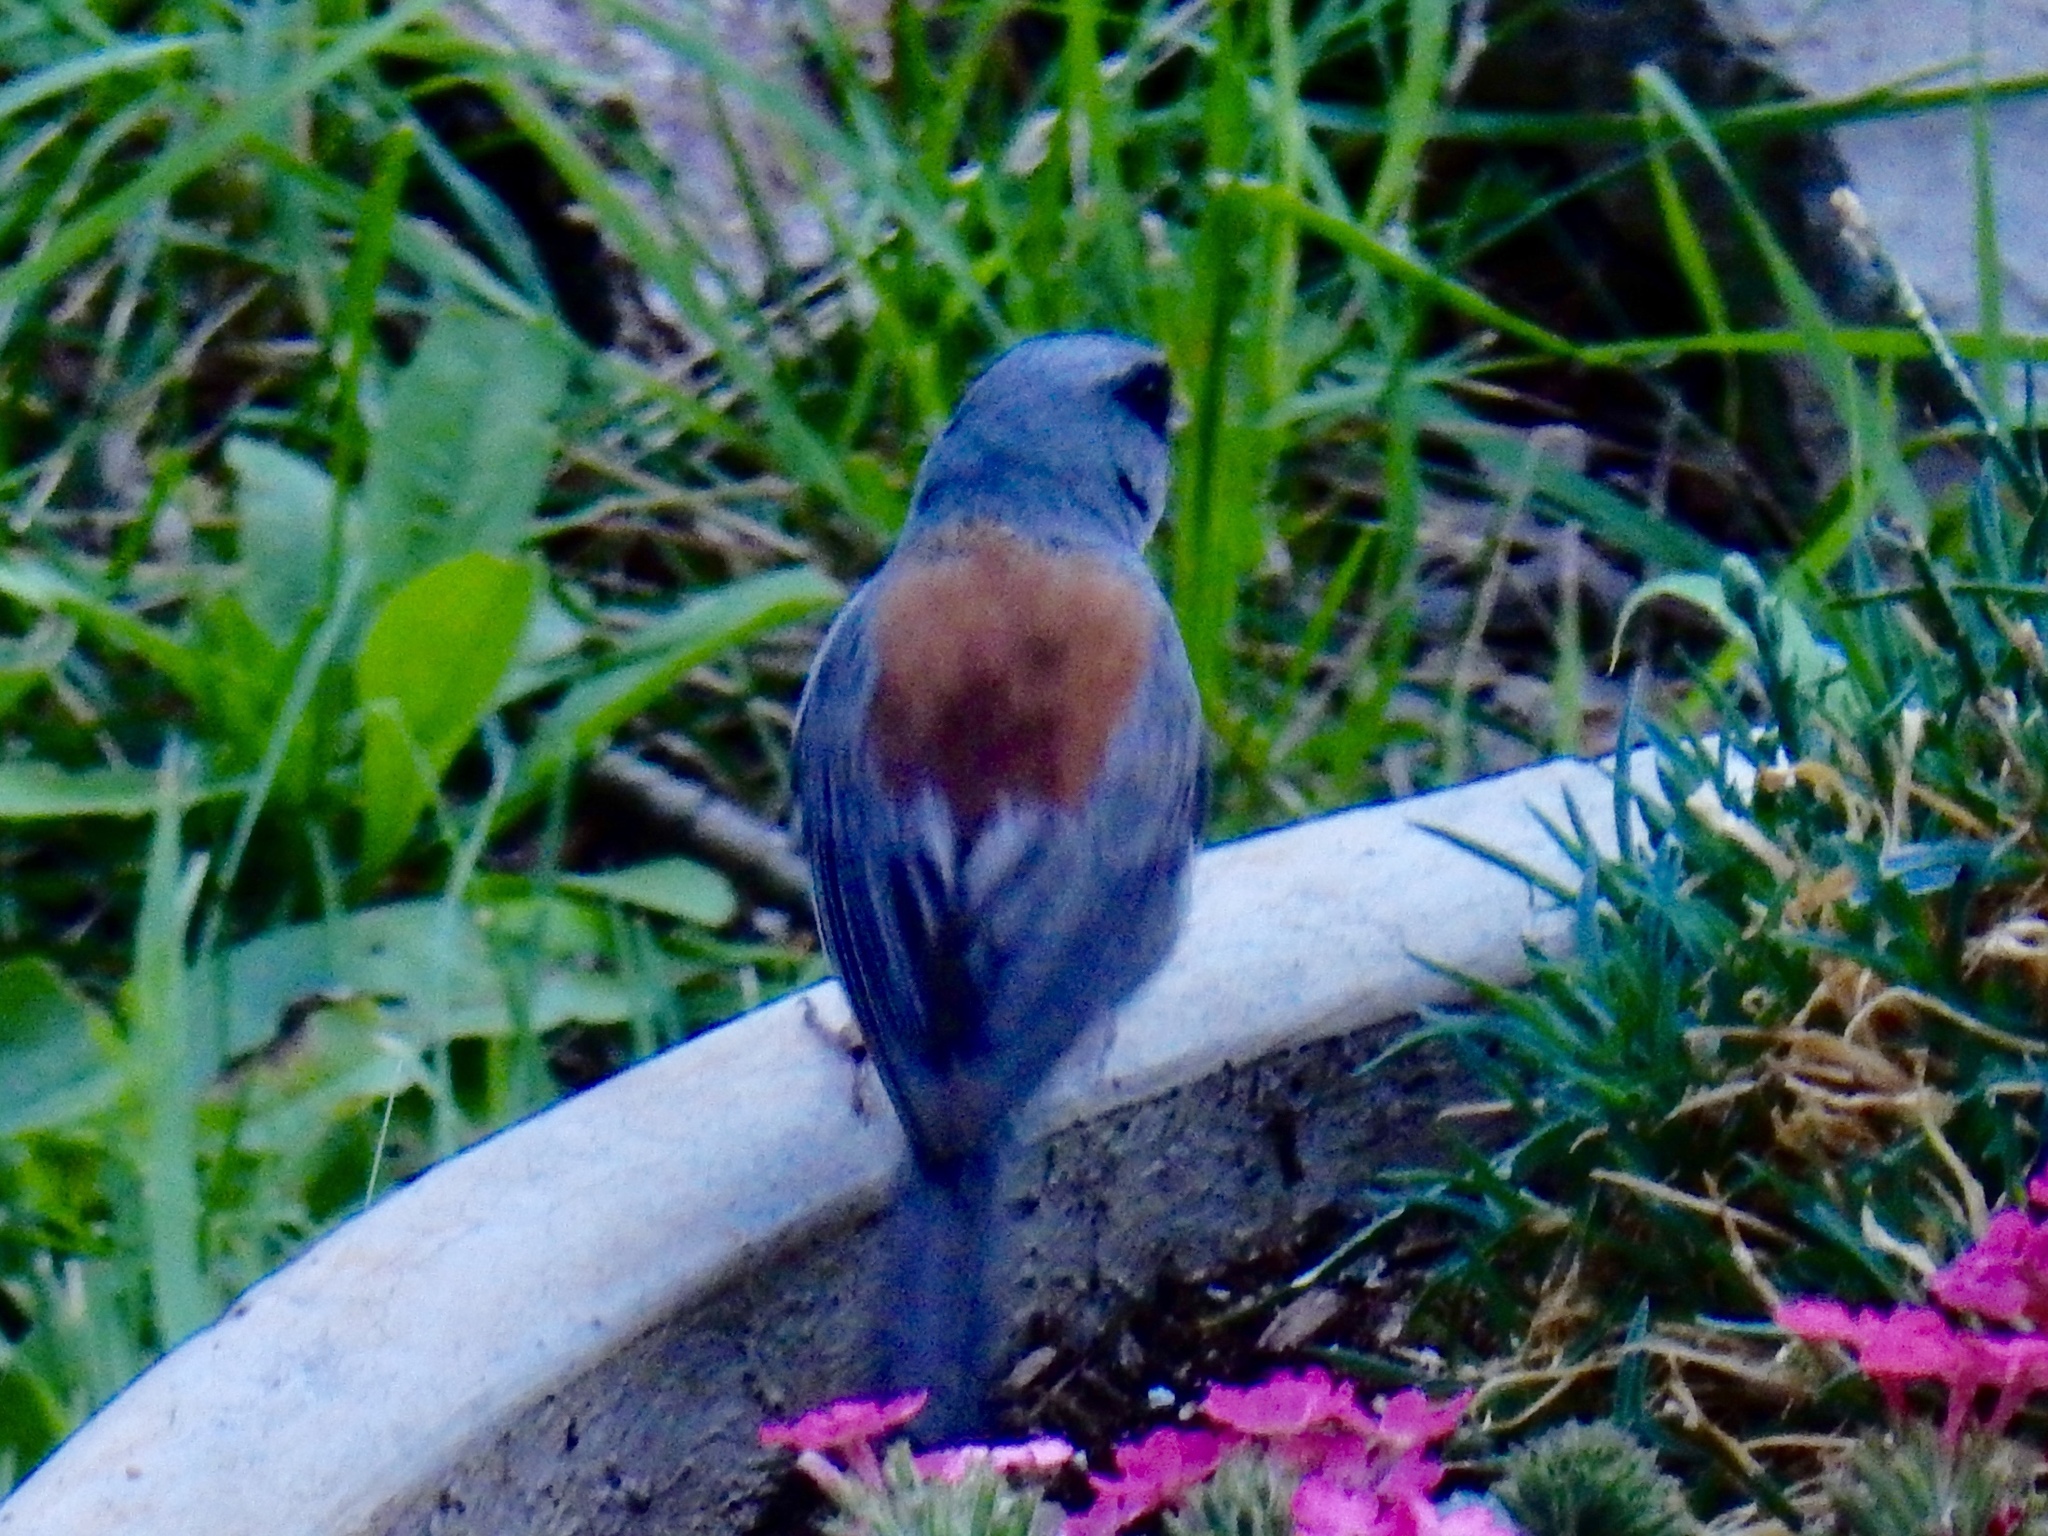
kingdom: Animalia
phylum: Chordata
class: Aves
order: Passeriformes
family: Passerellidae
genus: Junco
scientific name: Junco hyemalis
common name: Dark-eyed junco
